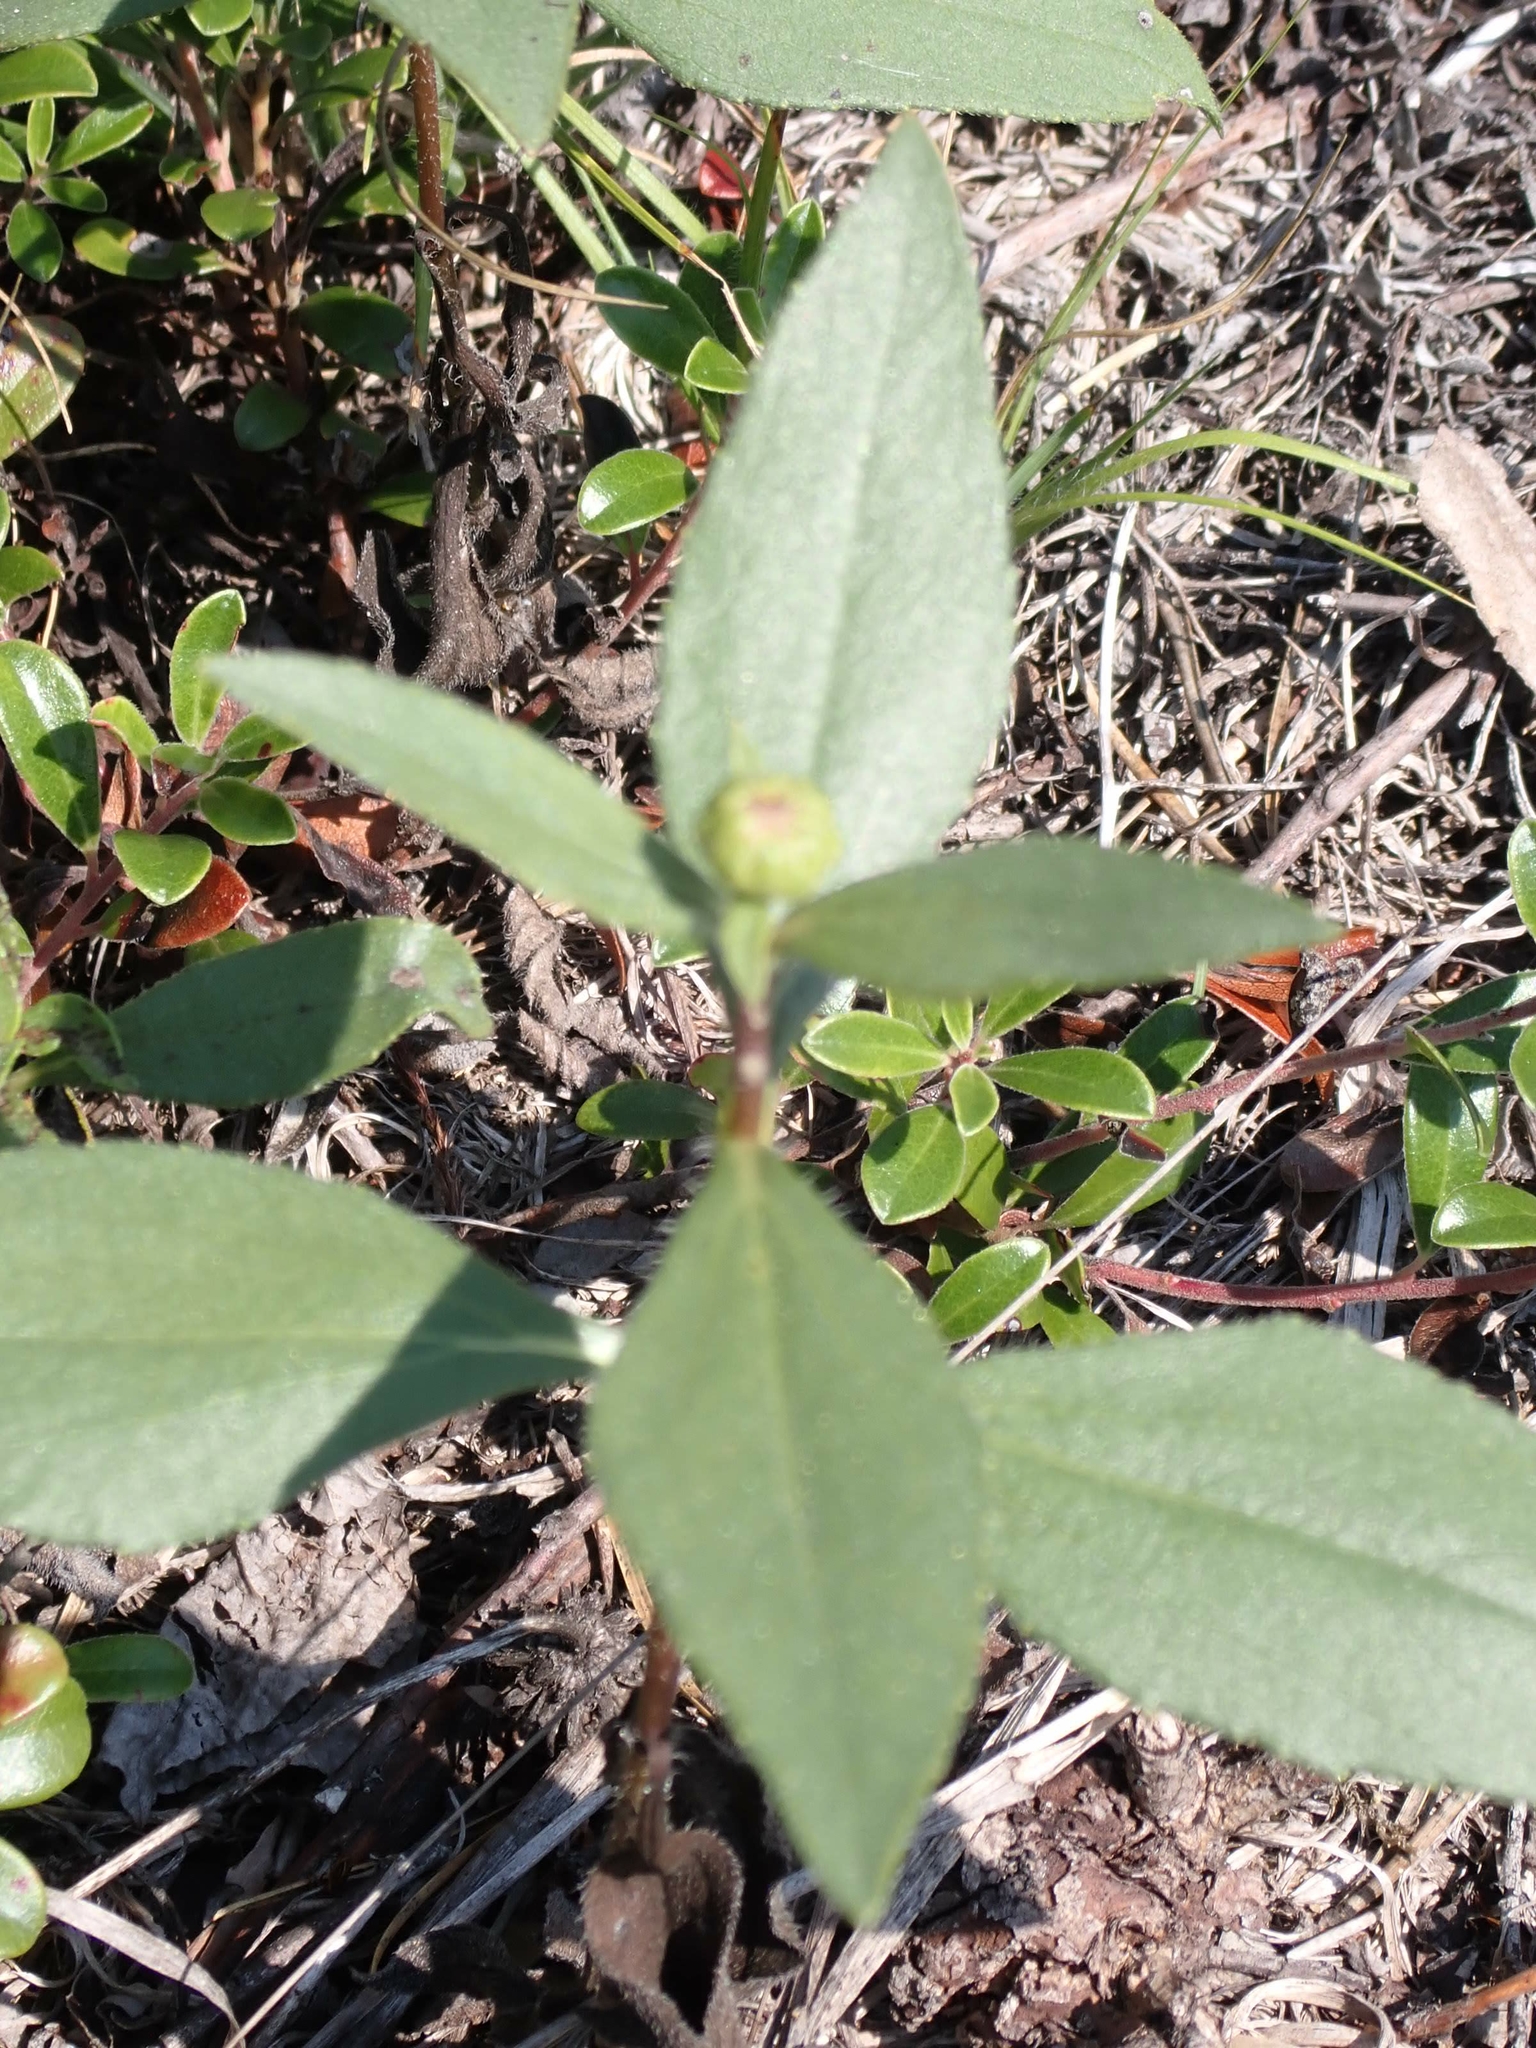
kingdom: Plantae
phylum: Tracheophyta
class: Magnoliopsida
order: Asterales
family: Asteraceae
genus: Helianthus
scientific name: Helianthus pauciflorus
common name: Stiff sunflower
